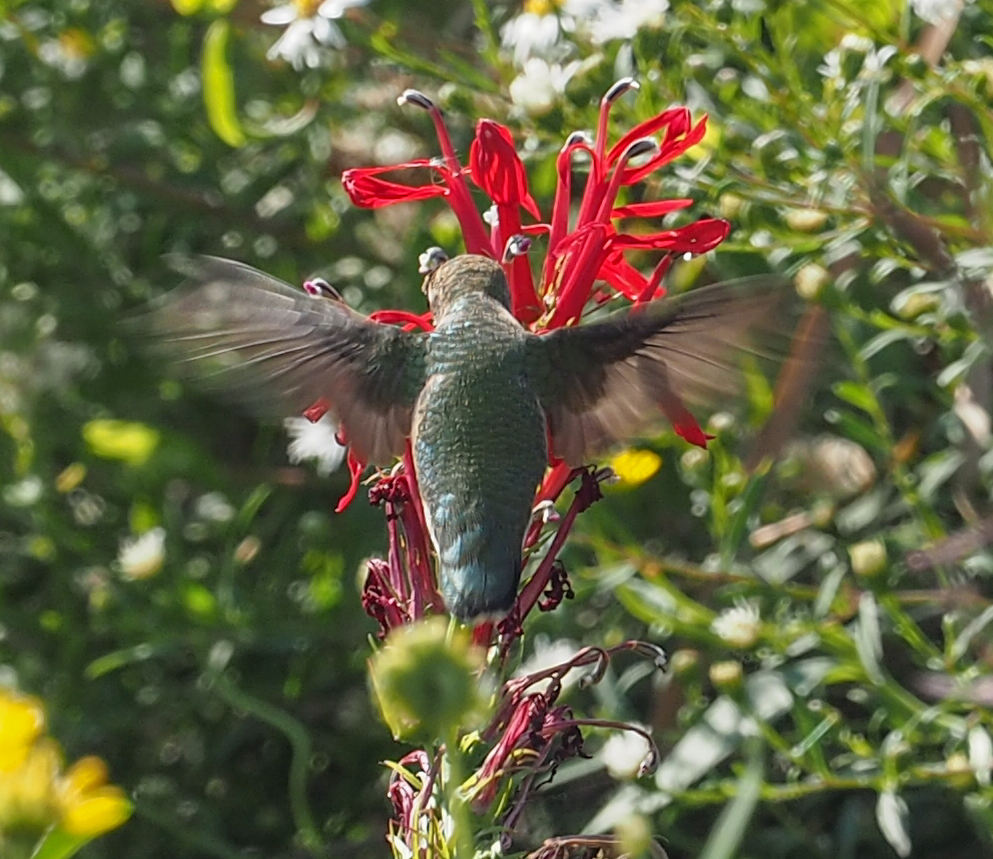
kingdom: Animalia
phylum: Chordata
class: Aves
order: Apodiformes
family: Trochilidae
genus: Archilochus
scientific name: Archilochus colubris
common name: Ruby-throated hummingbird
